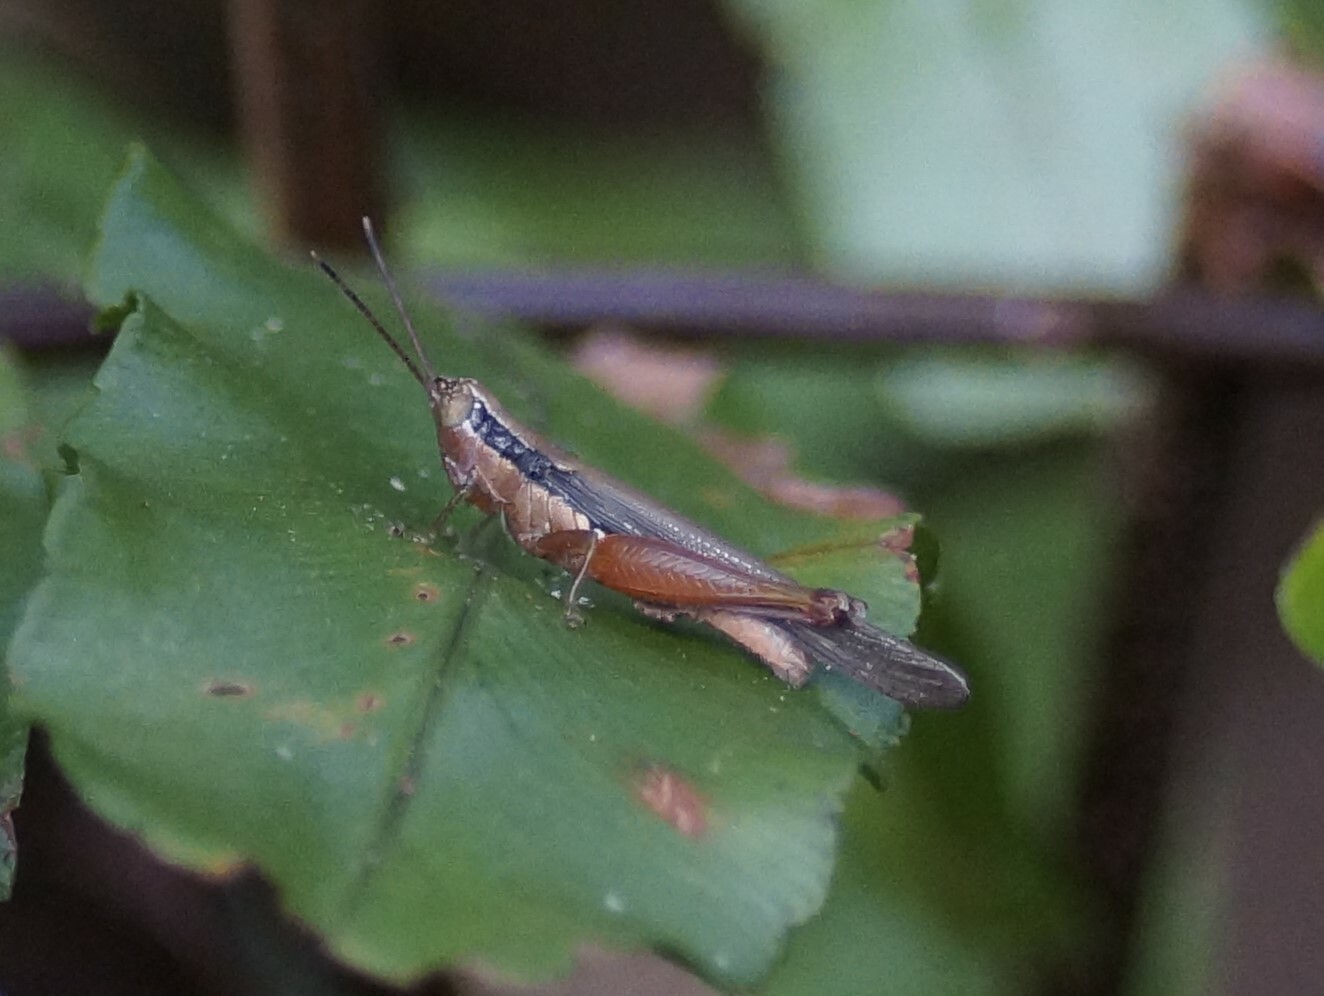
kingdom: Animalia
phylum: Arthropoda
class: Insecta
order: Orthoptera
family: Acrididae
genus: Gesonula
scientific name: Gesonula mundata
